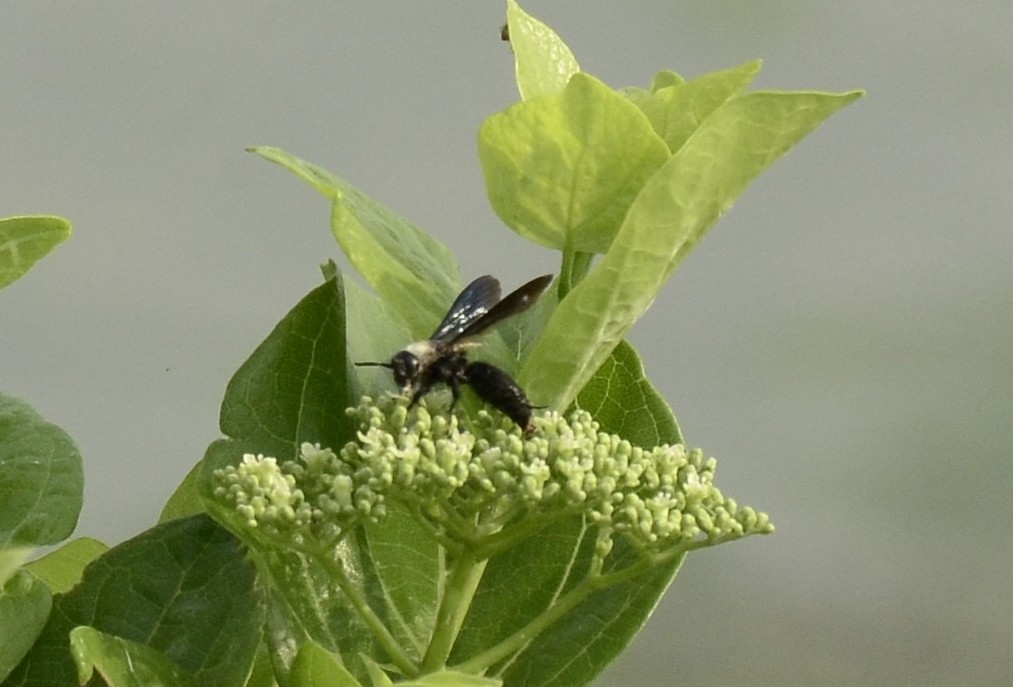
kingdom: Animalia
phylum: Arthropoda
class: Insecta
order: Hymenoptera
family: Scoliidae
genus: Campsomeriella
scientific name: Campsomeriella collaris
